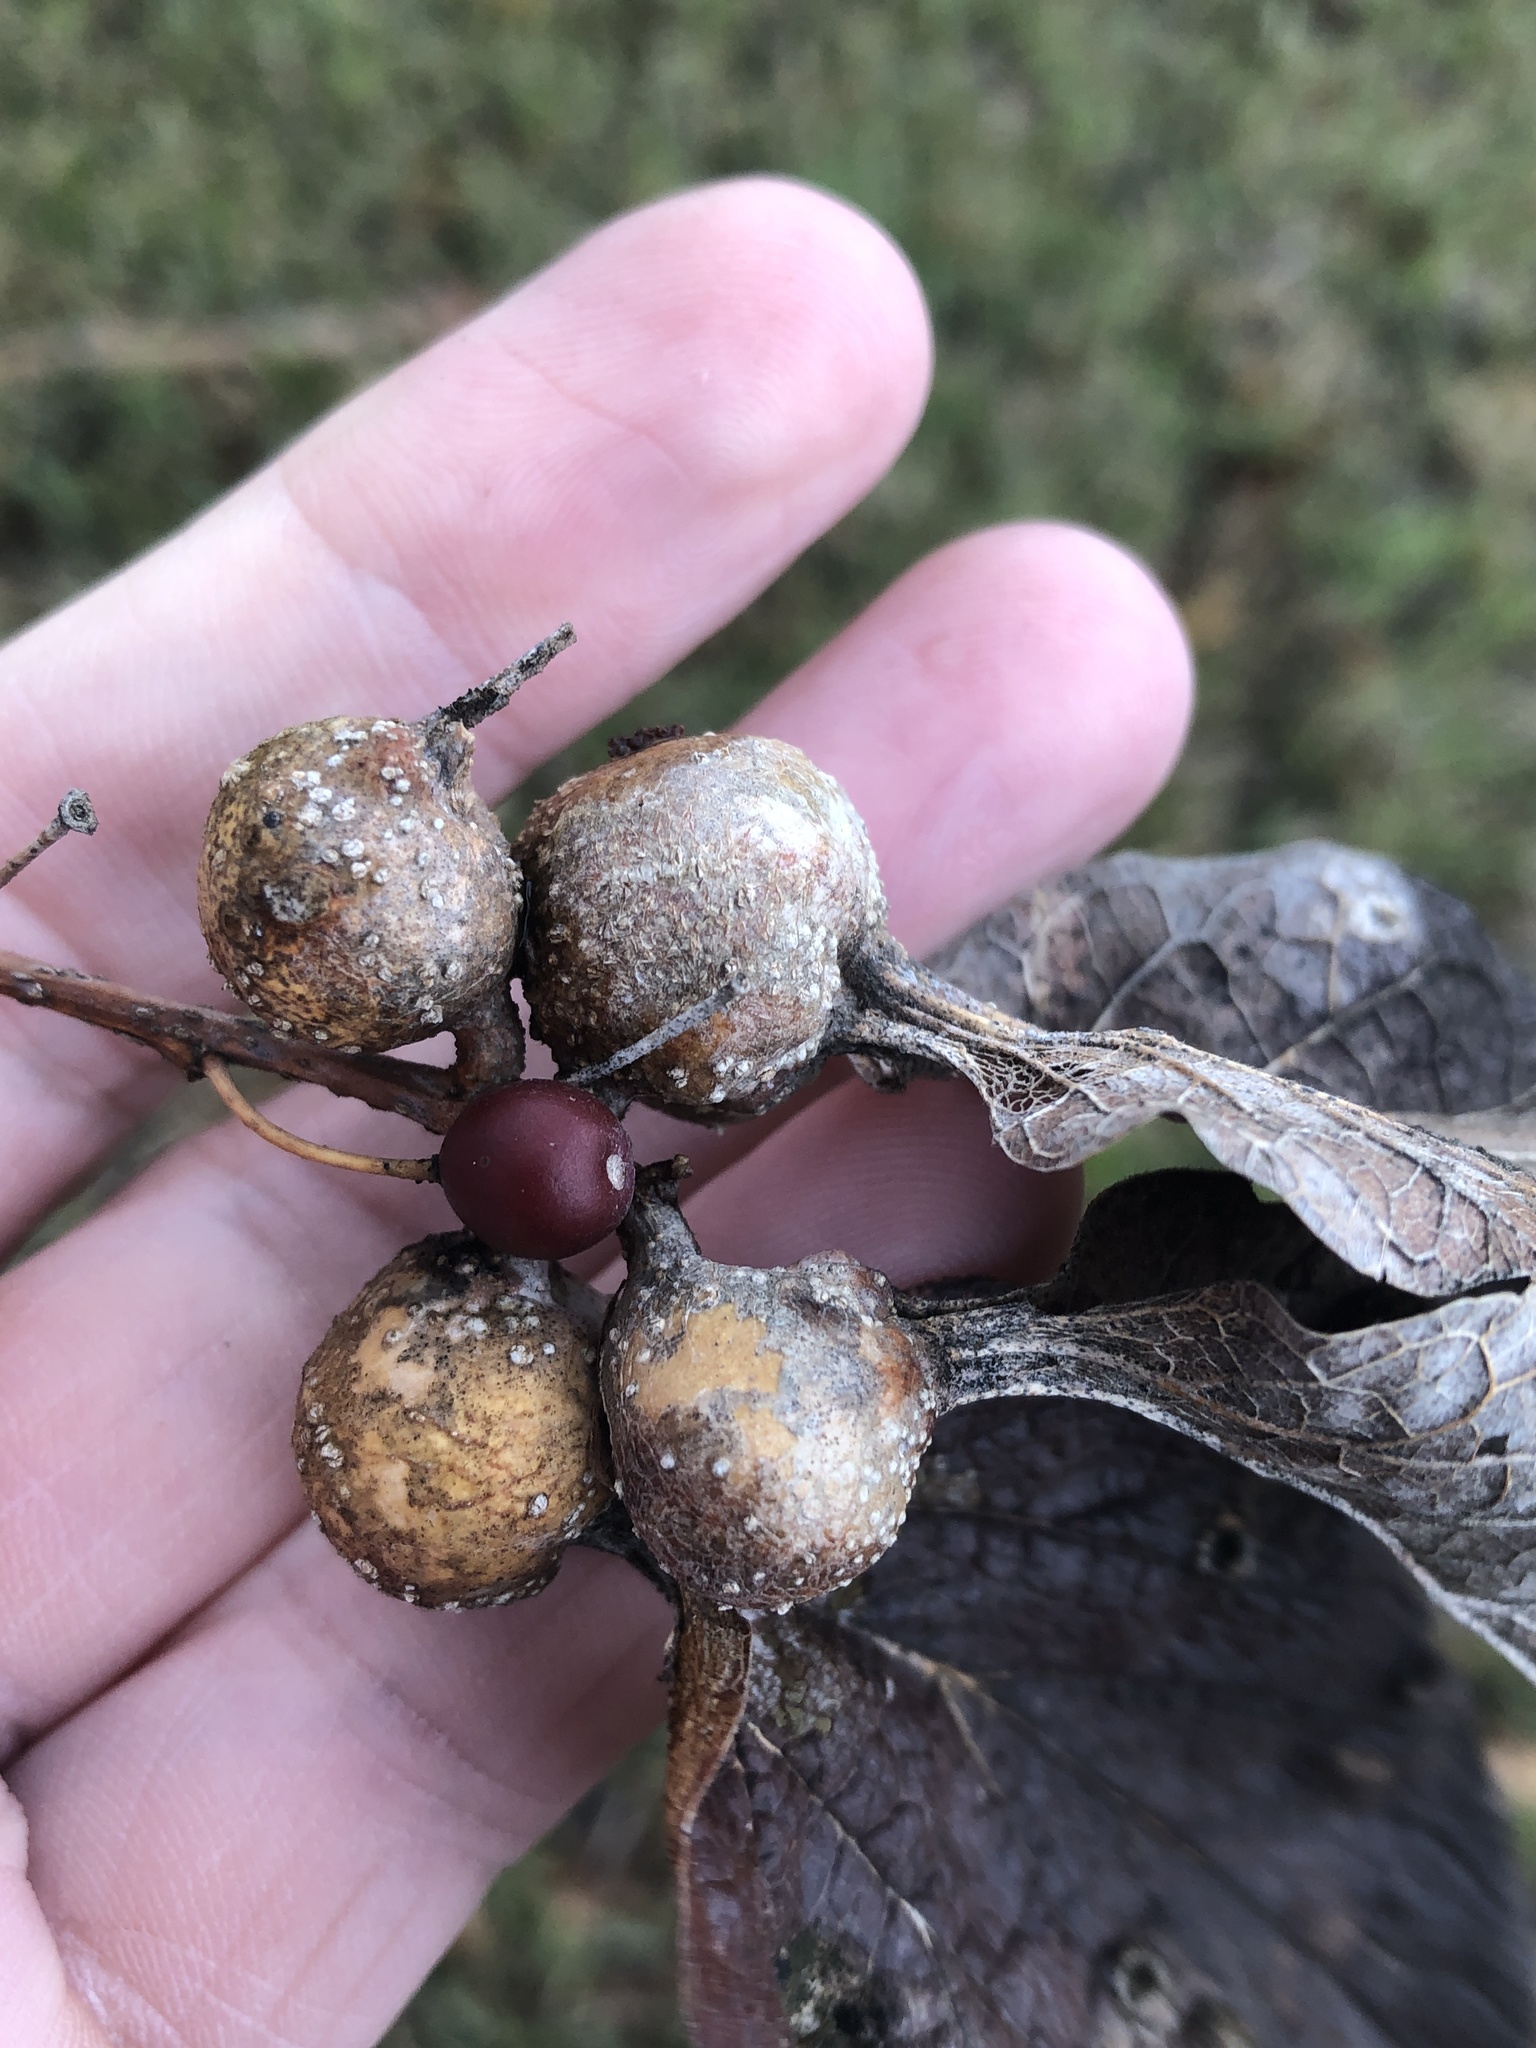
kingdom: Animalia
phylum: Arthropoda
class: Insecta
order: Hemiptera
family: Aphalaridae
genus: Pachypsylla
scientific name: Pachypsylla venusta
